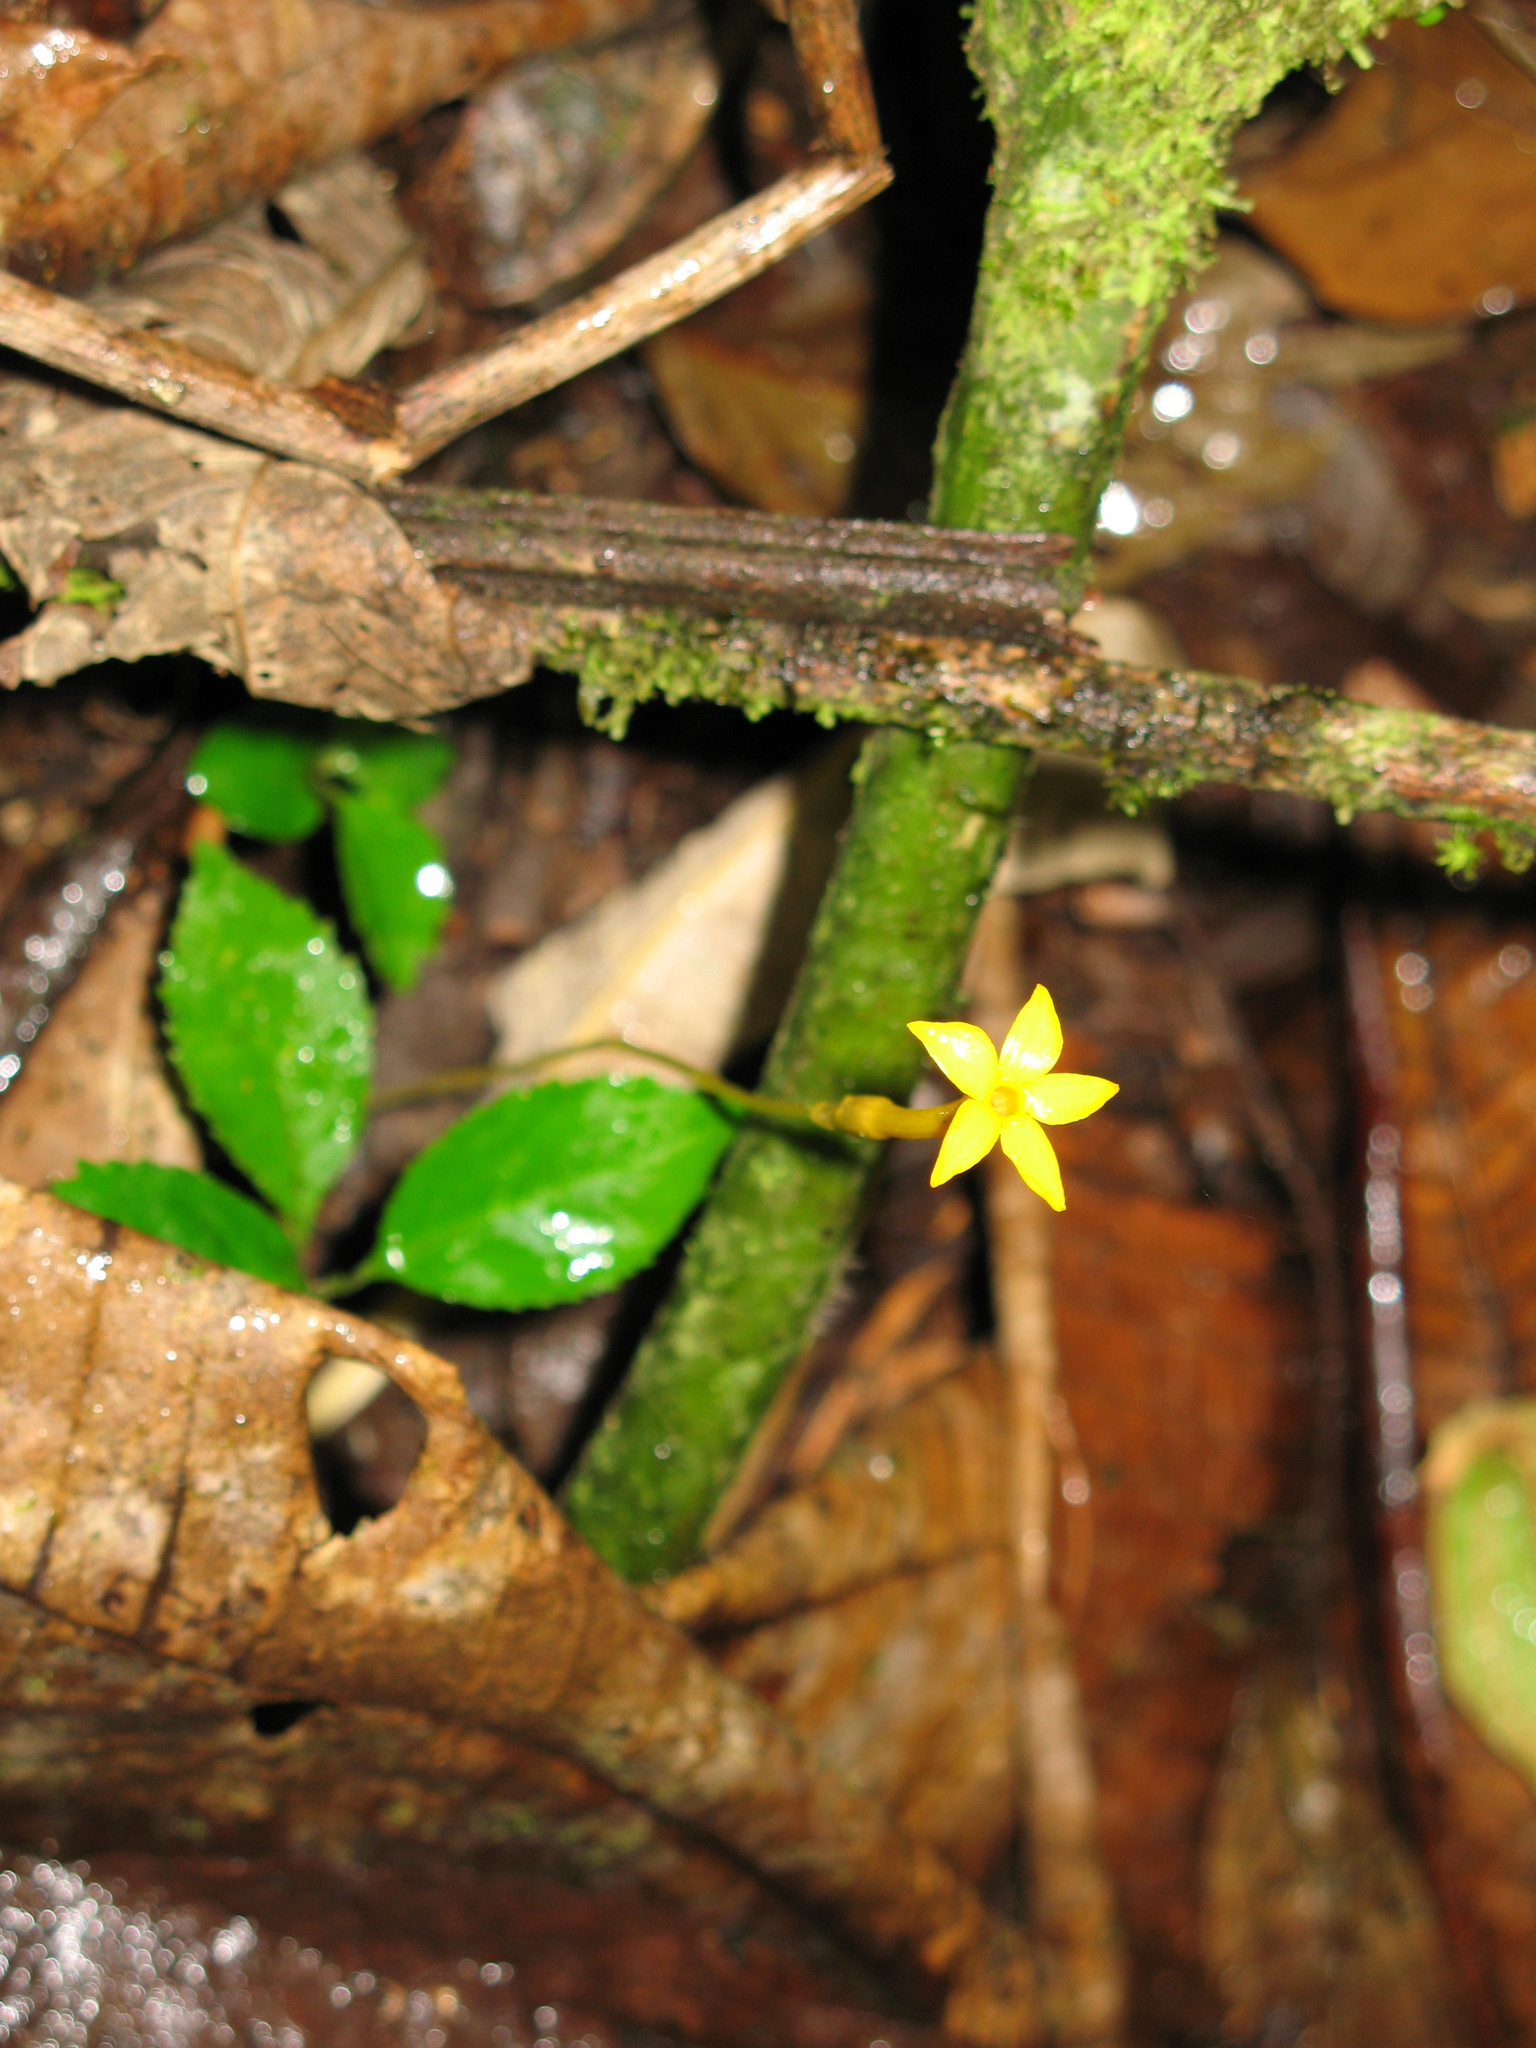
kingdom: Plantae
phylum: Tracheophyta
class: Magnoliopsida
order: Gentianales
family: Gentianaceae
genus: Voyria
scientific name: Voyria aphylla
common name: Leafless ghost plant
